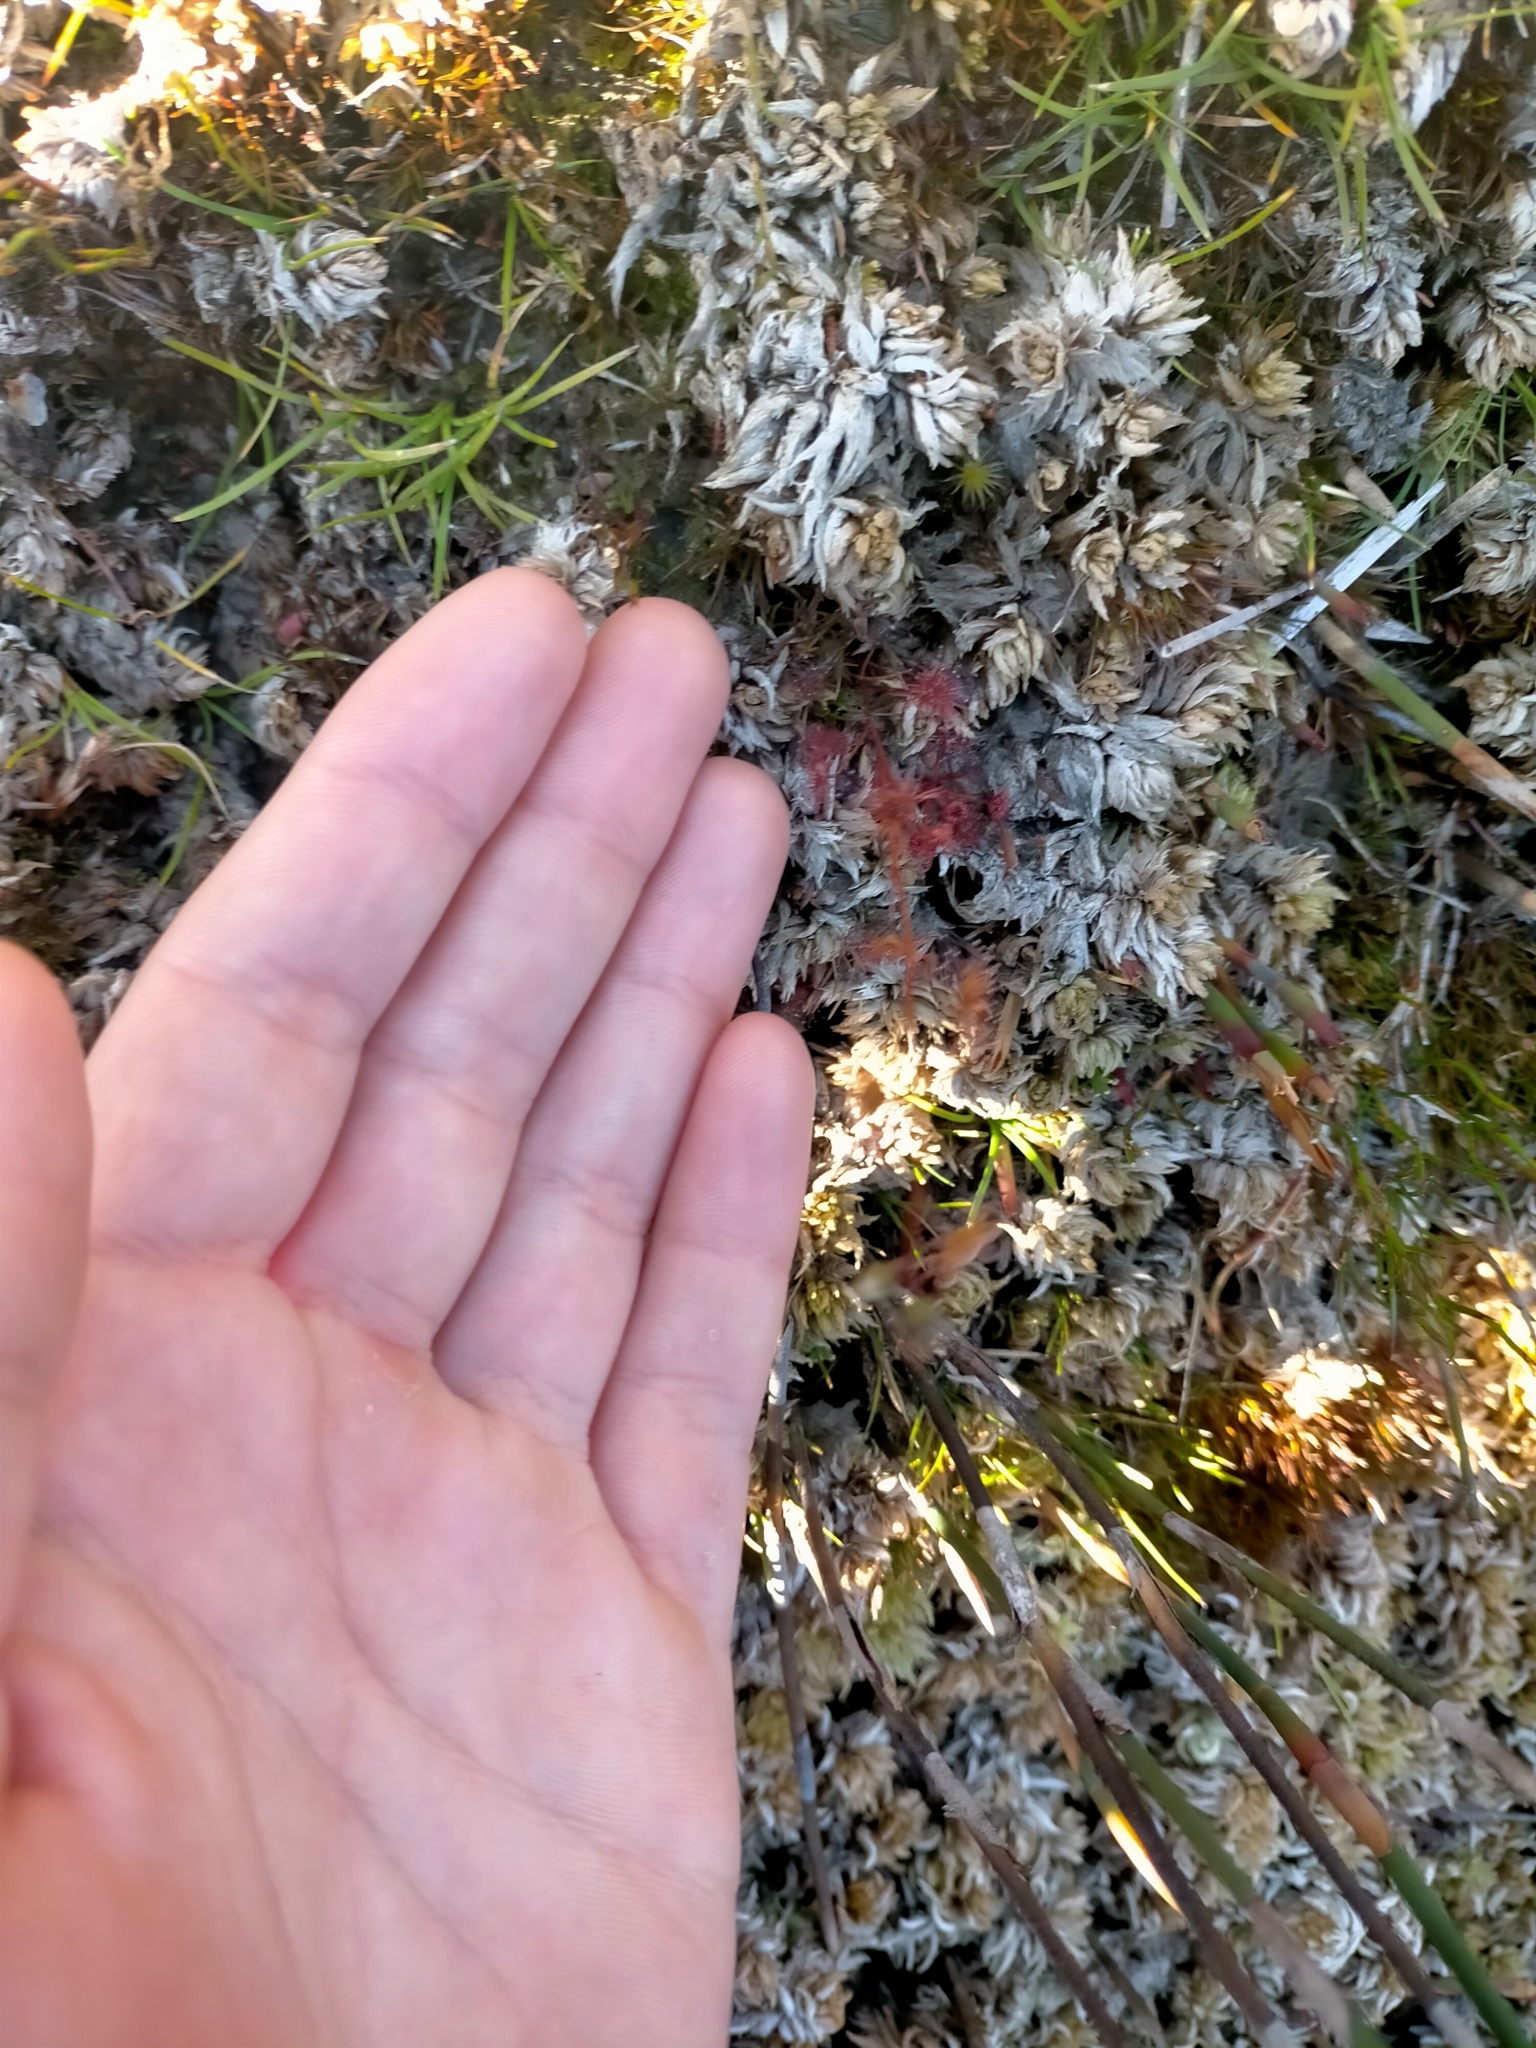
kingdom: Plantae
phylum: Tracheophyta
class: Magnoliopsida
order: Caryophyllales
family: Droseraceae
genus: Drosera
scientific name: Drosera pygmaea
